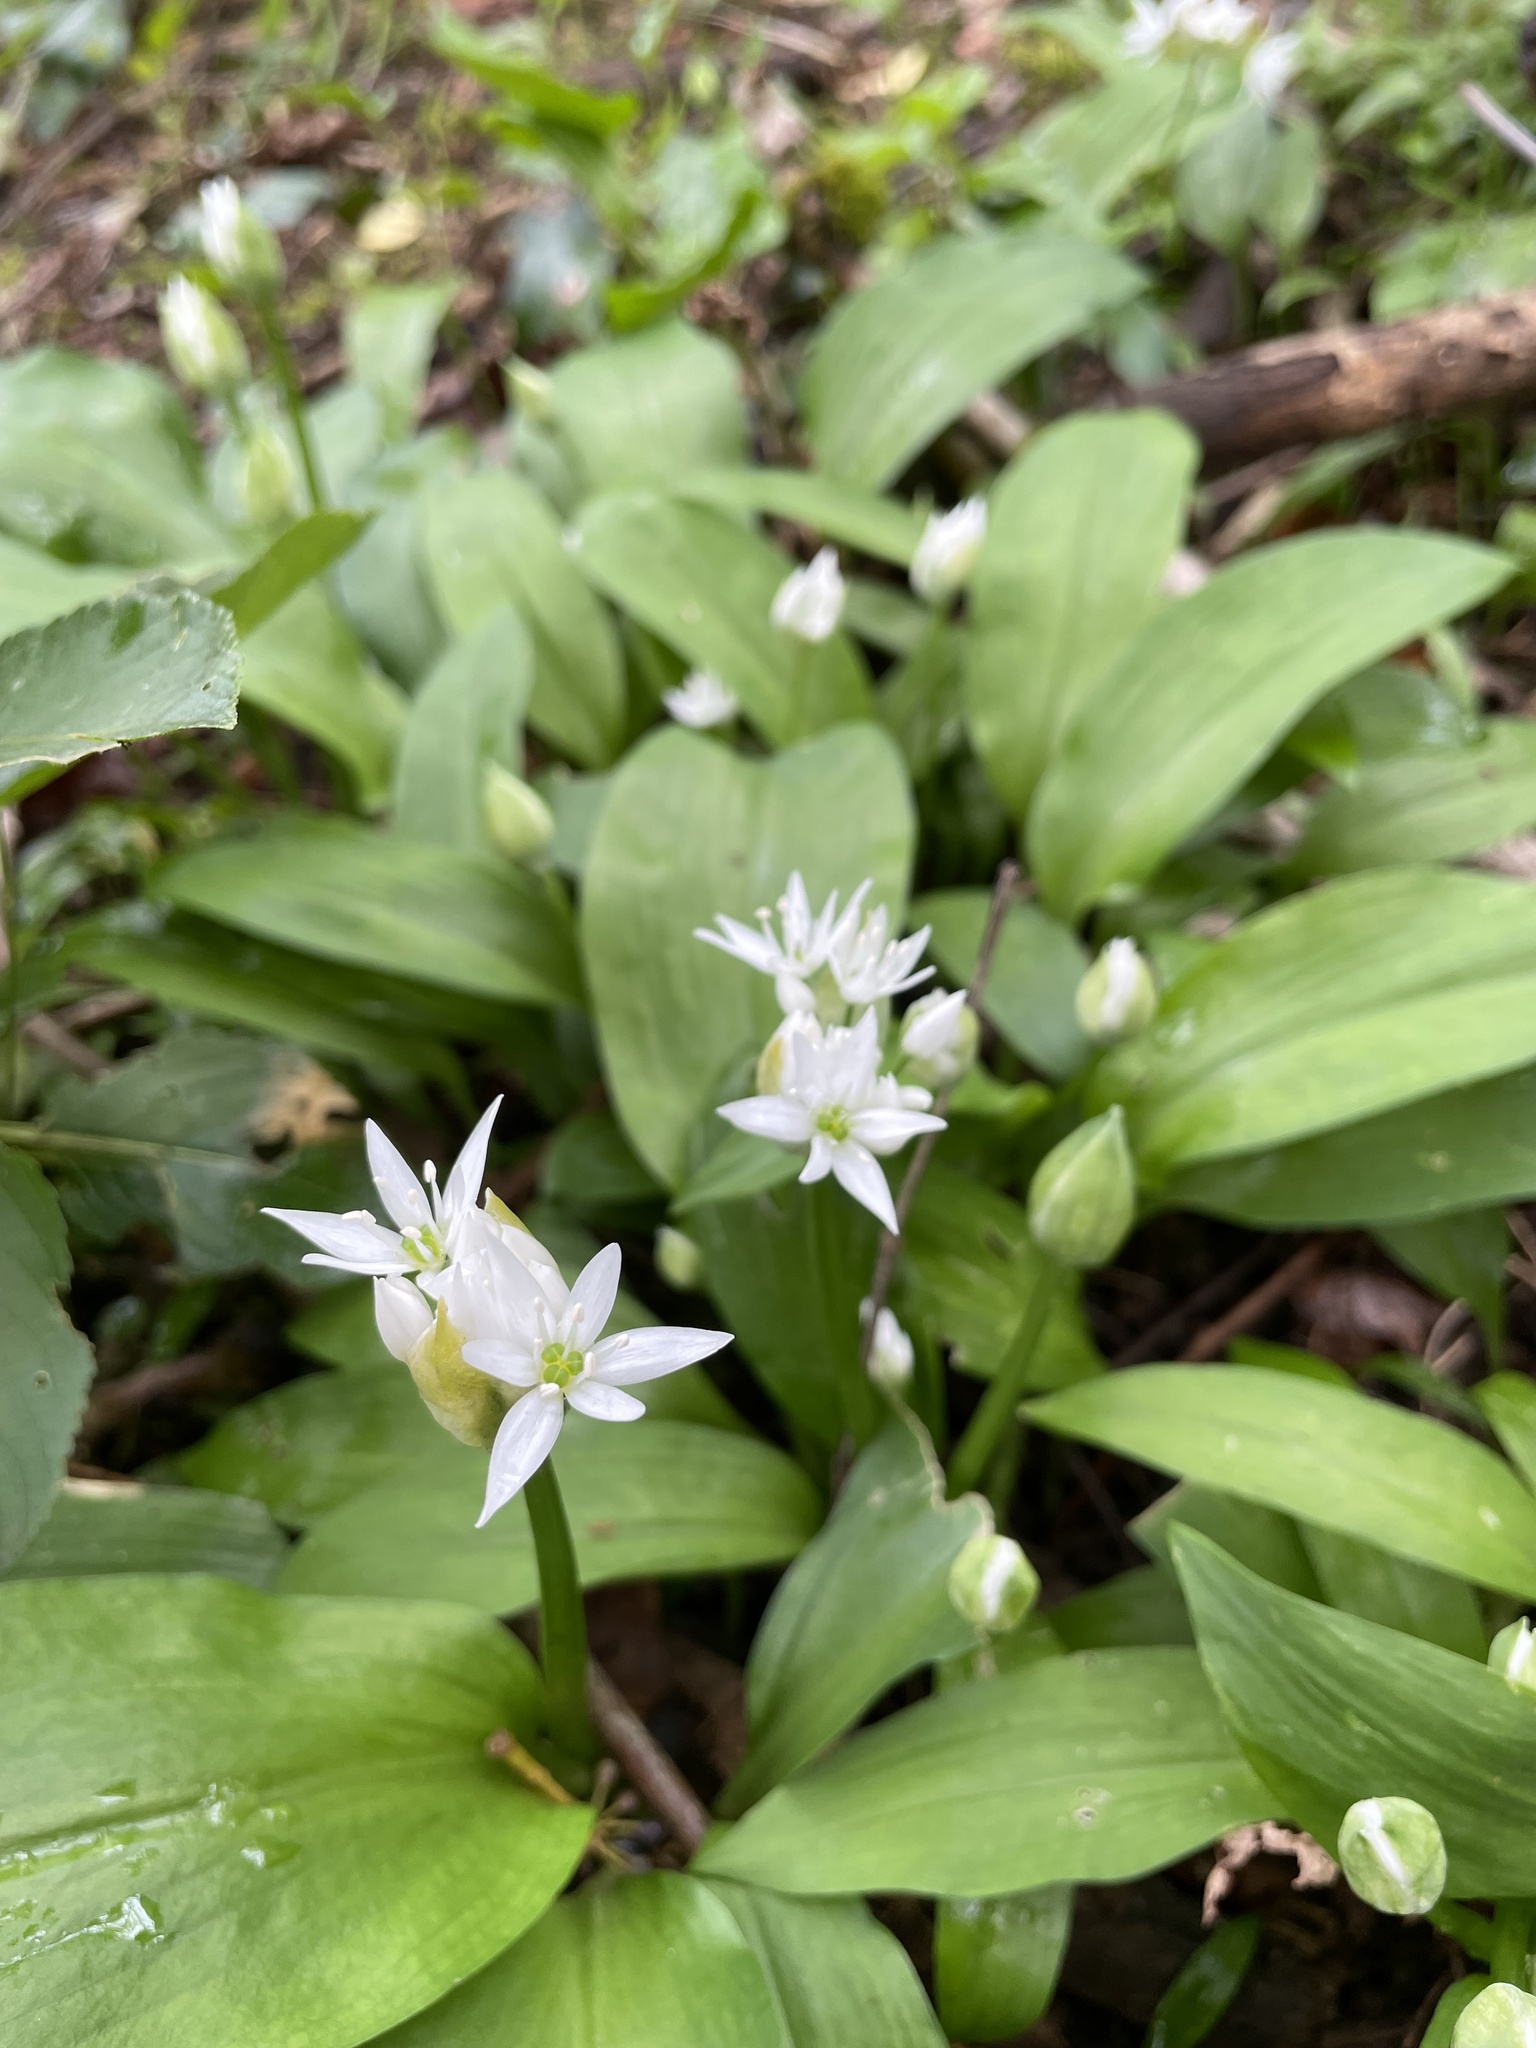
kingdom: Plantae
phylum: Tracheophyta
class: Liliopsida
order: Asparagales
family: Amaryllidaceae
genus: Allium
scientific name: Allium ursinum
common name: Ramsons
